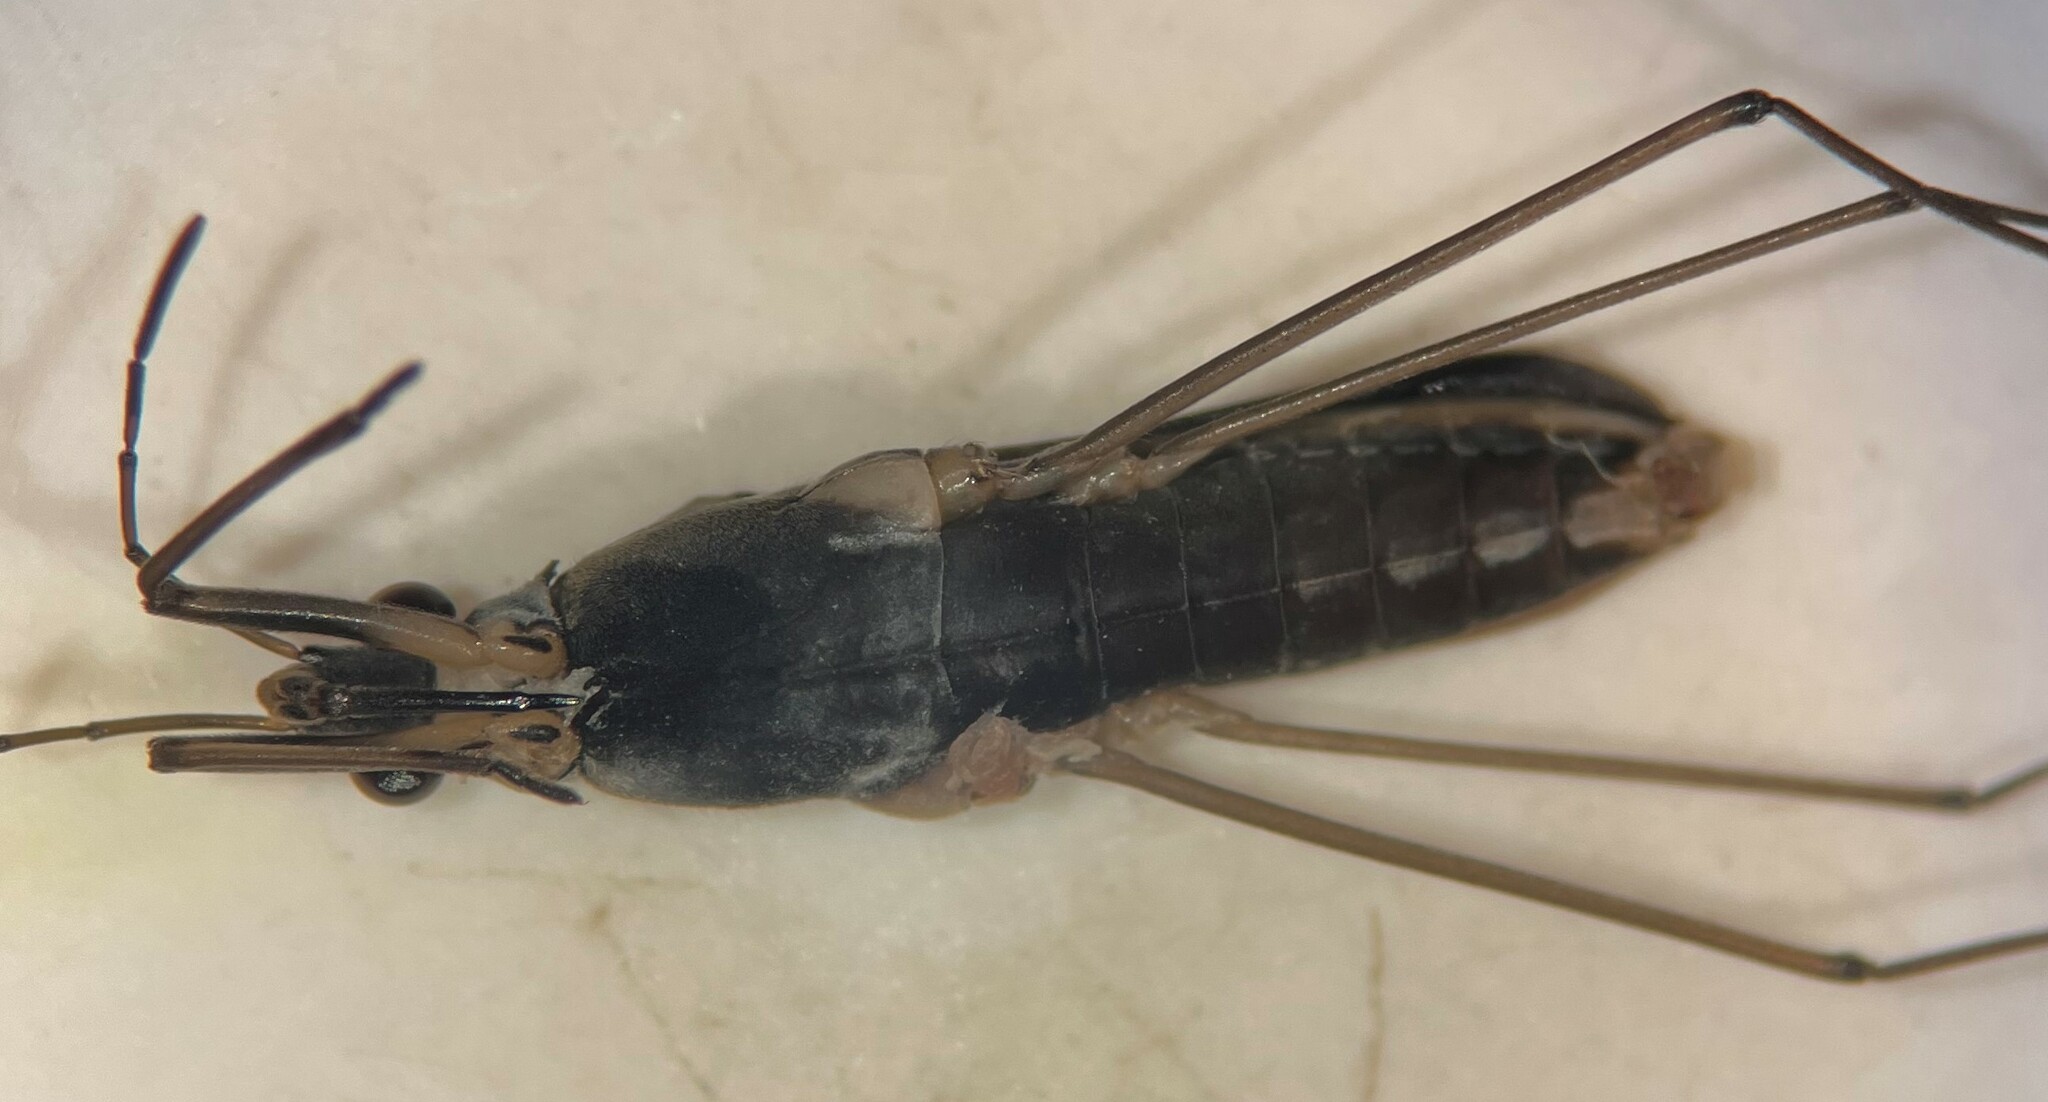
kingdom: Animalia
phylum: Arthropoda
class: Insecta
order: Hemiptera
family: Gerridae
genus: Gerris
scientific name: Gerris marginatus
